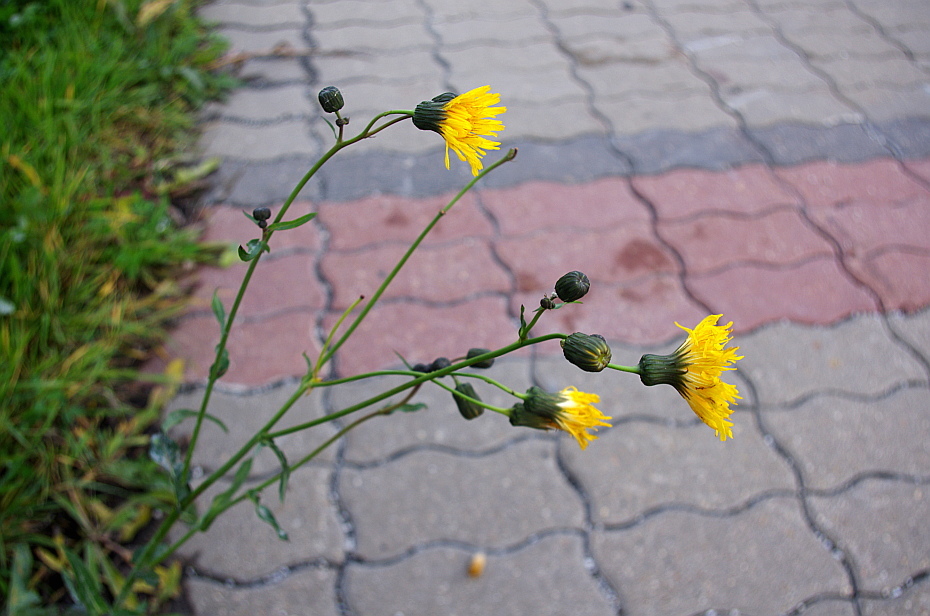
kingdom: Plantae
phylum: Tracheophyta
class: Magnoliopsida
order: Asterales
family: Asteraceae
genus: Sonchus
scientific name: Sonchus arvensis
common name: Perennial sow-thistle
